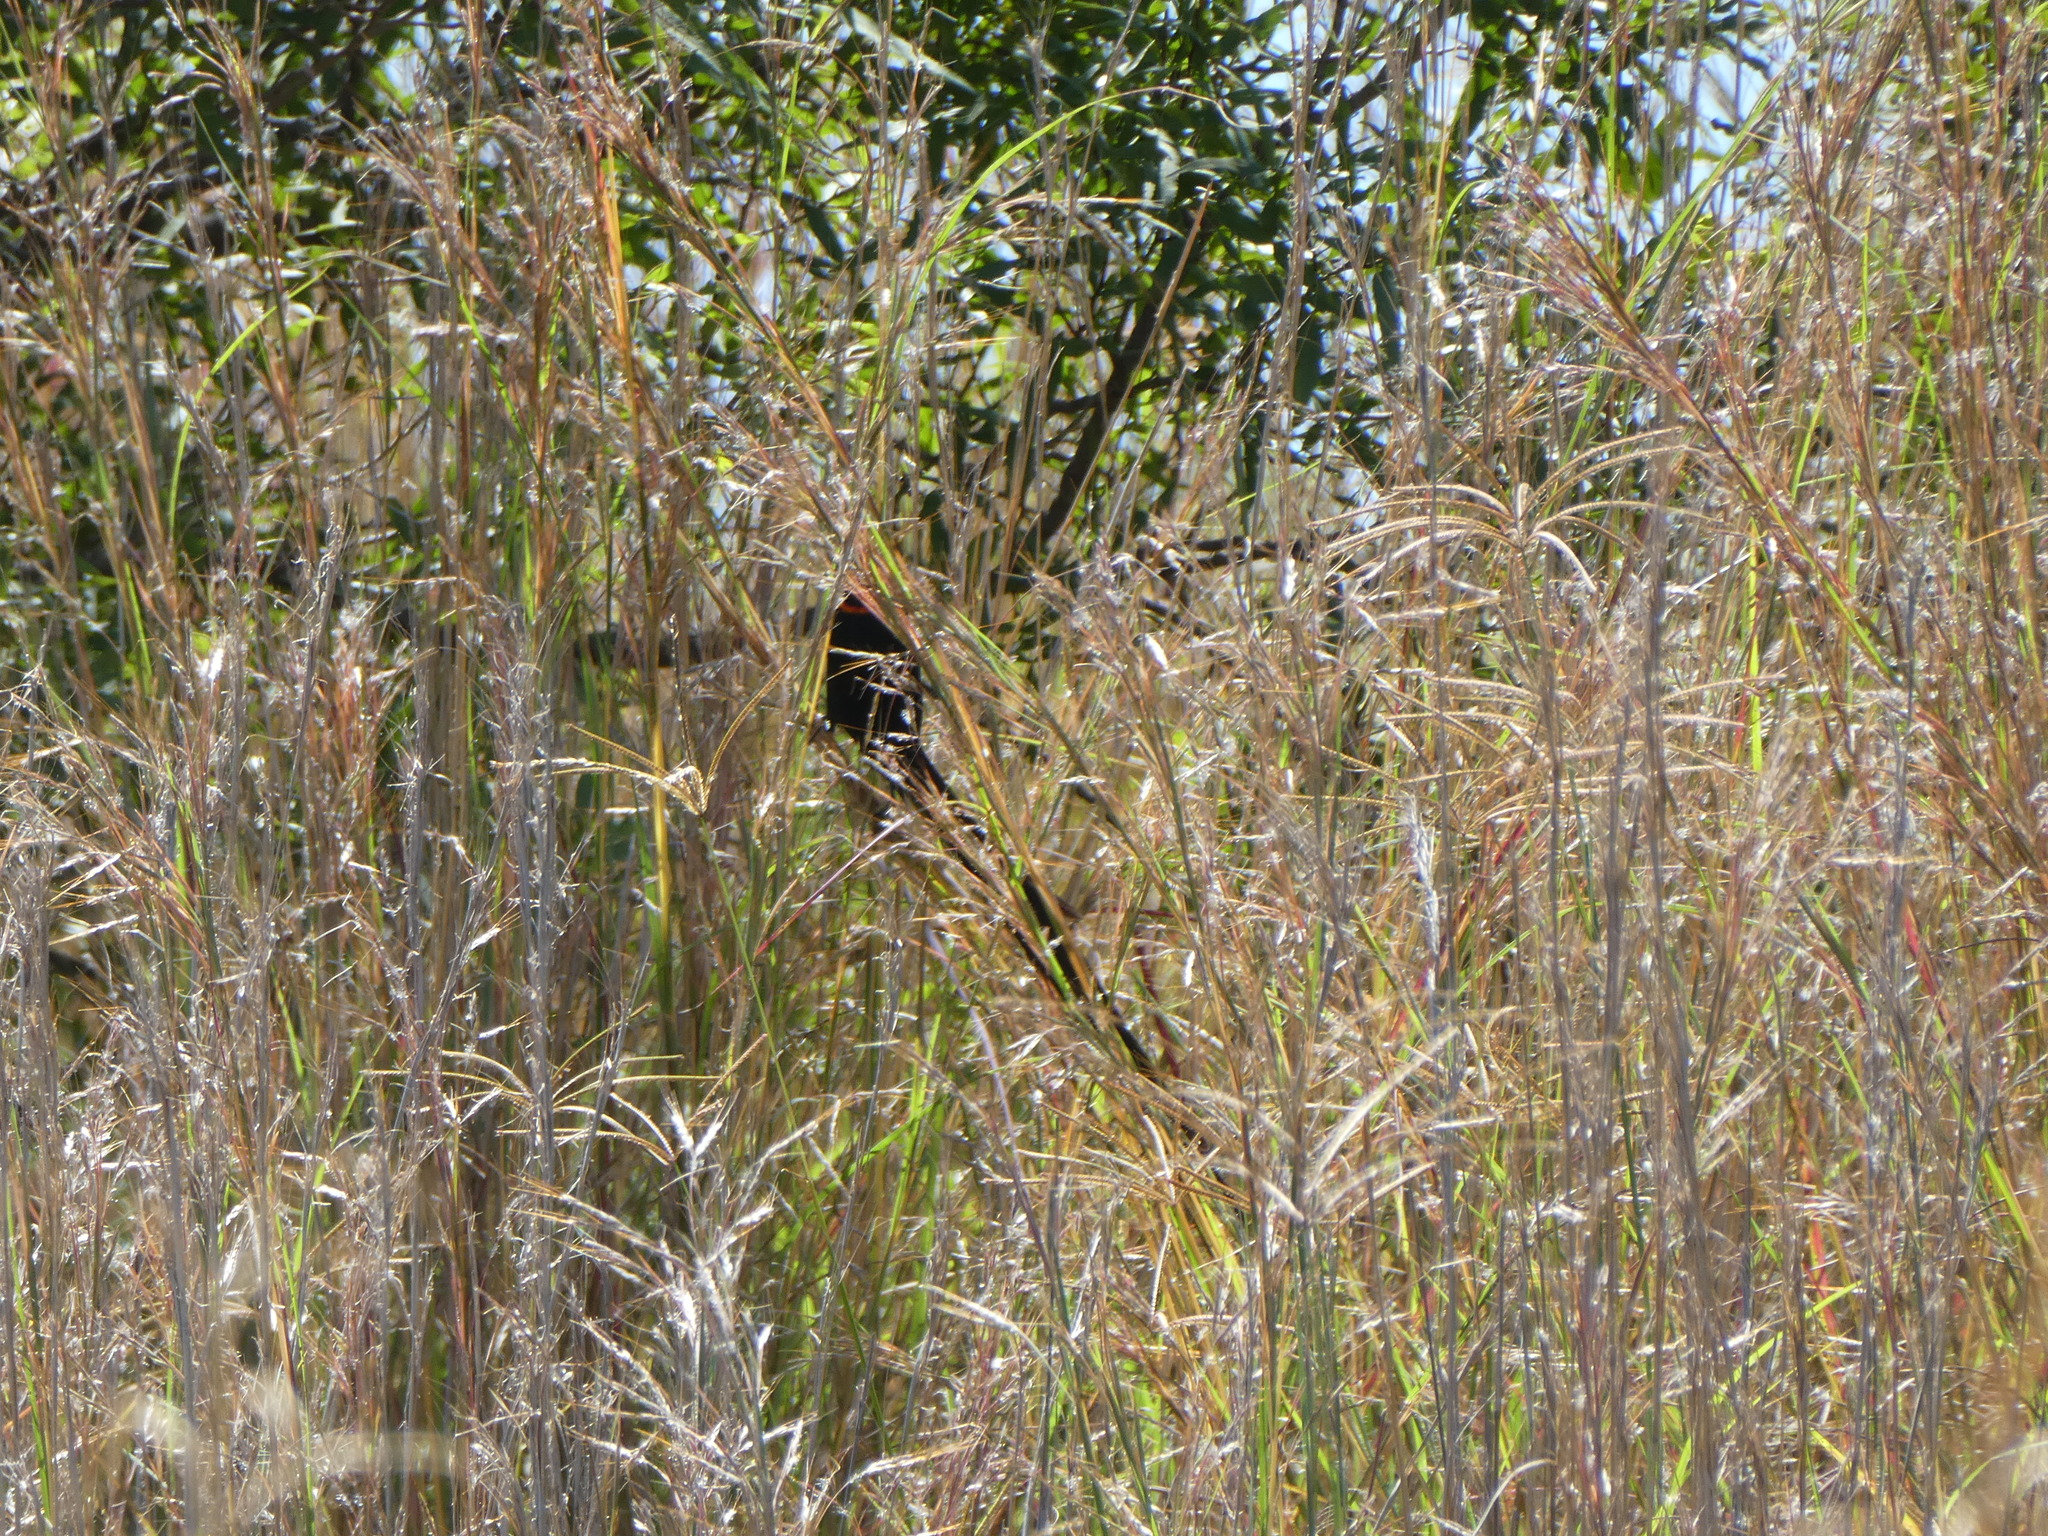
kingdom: Animalia
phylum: Chordata
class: Aves
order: Passeriformes
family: Ploceidae
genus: Euplectes
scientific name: Euplectes progne
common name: Long-tailed widowbird
